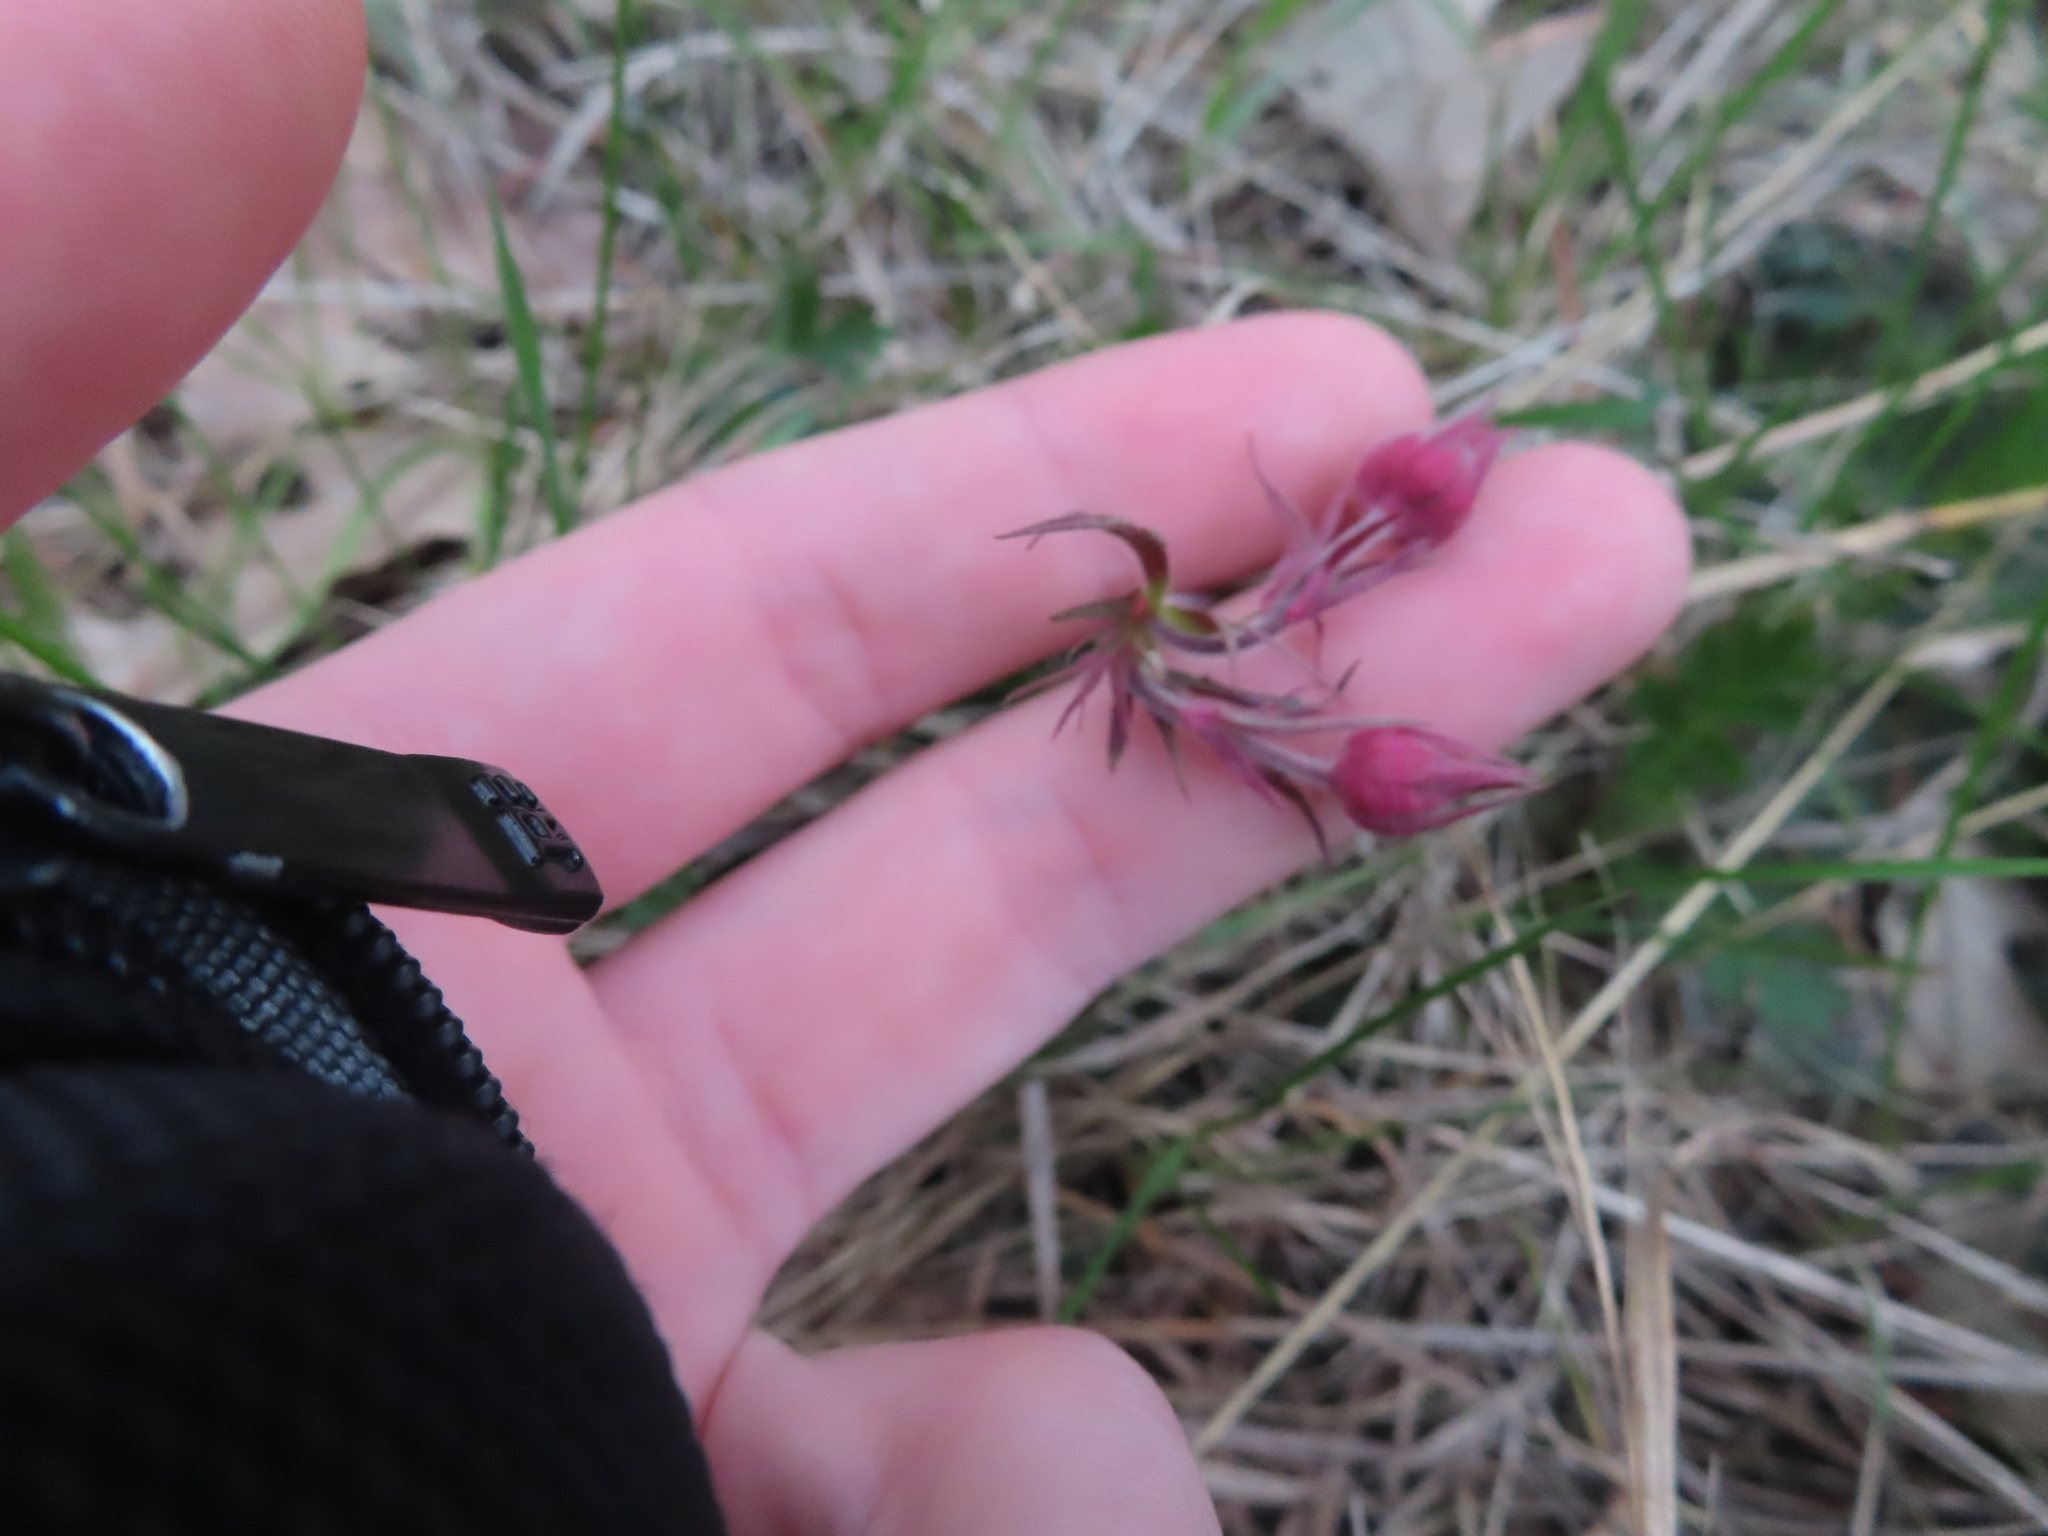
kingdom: Plantae
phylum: Tracheophyta
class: Magnoliopsida
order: Rosales
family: Rosaceae
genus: Geum
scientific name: Geum triflorum
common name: Old man's whiskers
